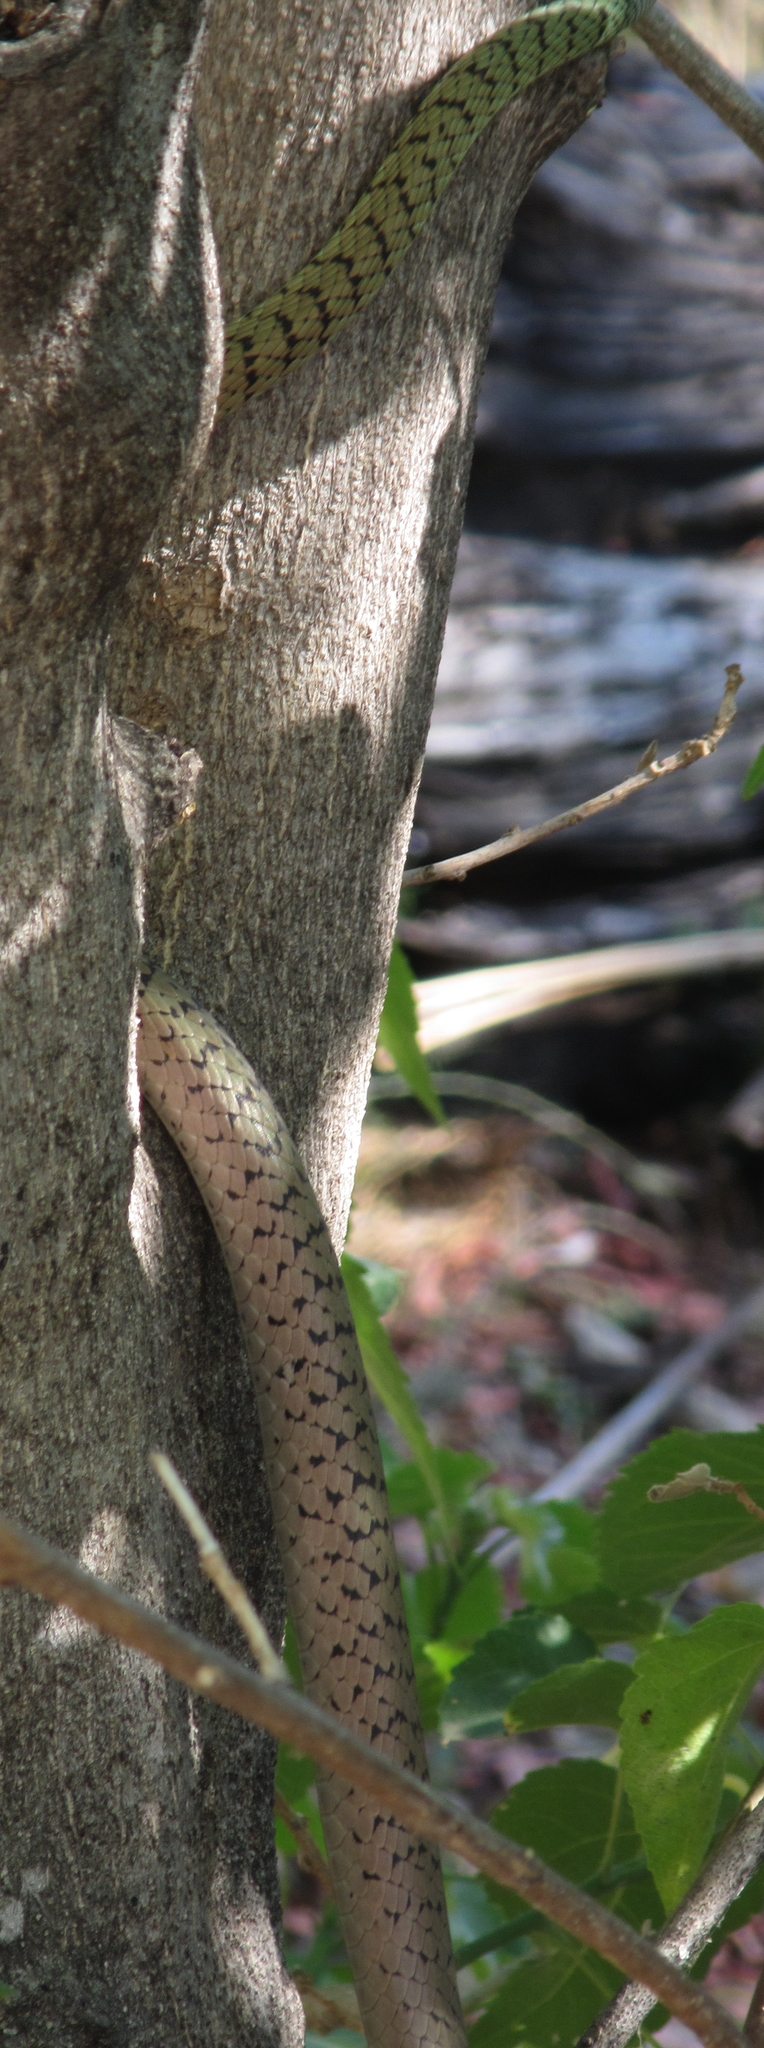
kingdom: Animalia
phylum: Chordata
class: Squamata
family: Colubridae
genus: Philothamnus
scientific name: Philothamnus semivariegatus
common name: Spotted bush snake
